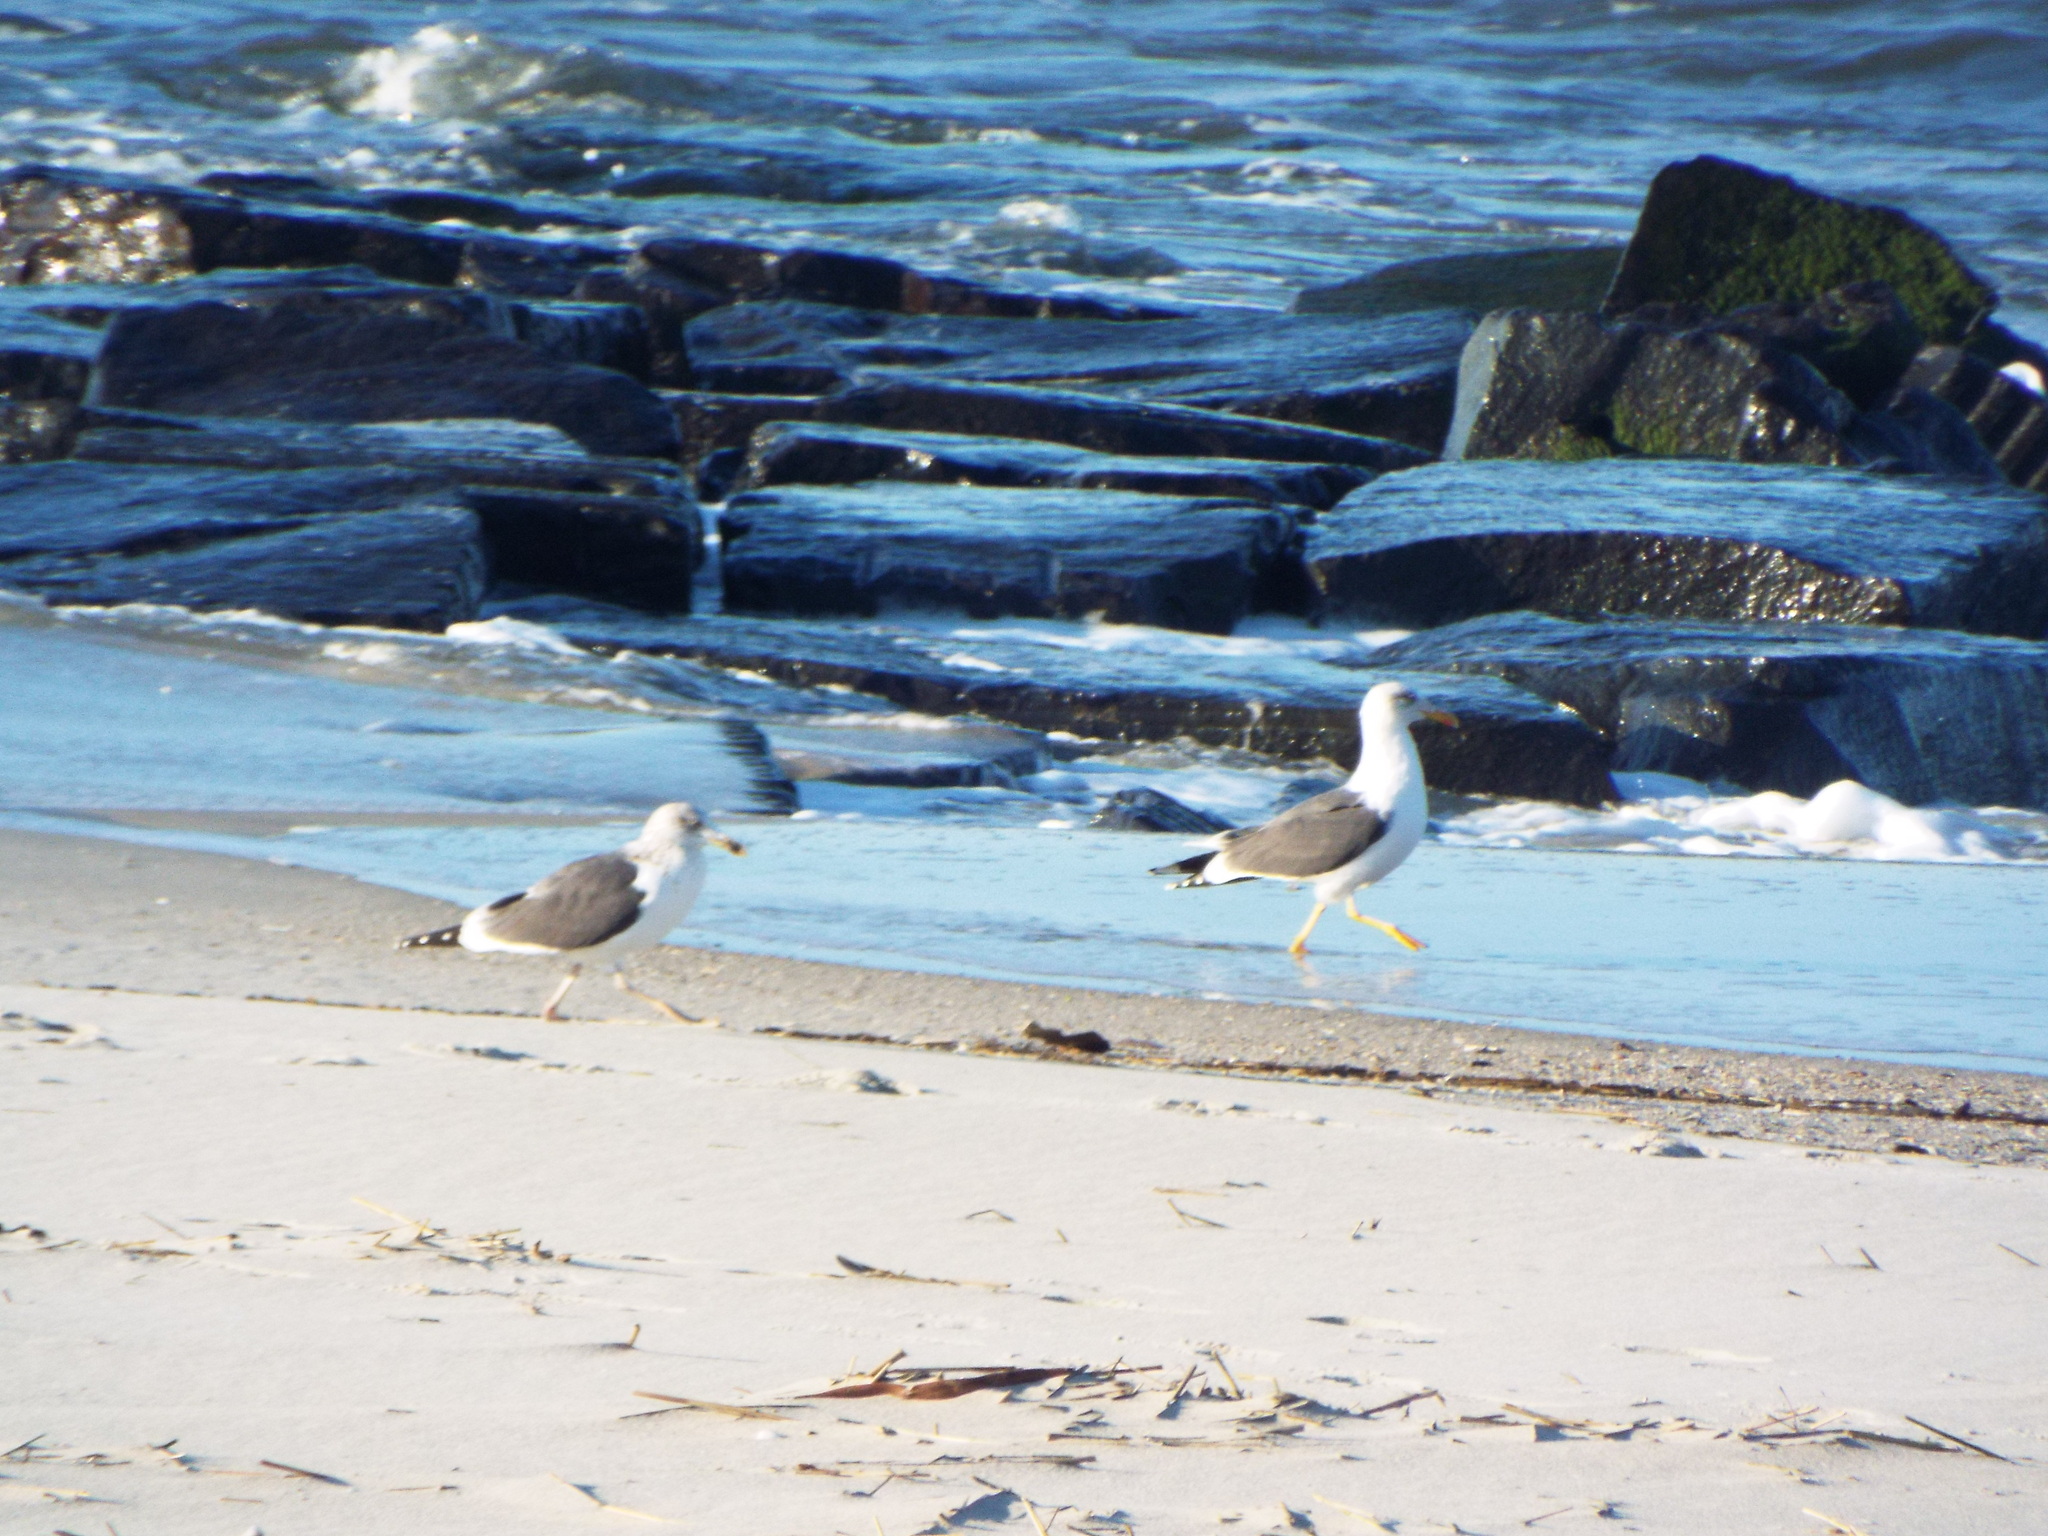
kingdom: Animalia
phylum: Chordata
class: Aves
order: Charadriiformes
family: Laridae
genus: Larus
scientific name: Larus fuscus
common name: Lesser black-backed gull
